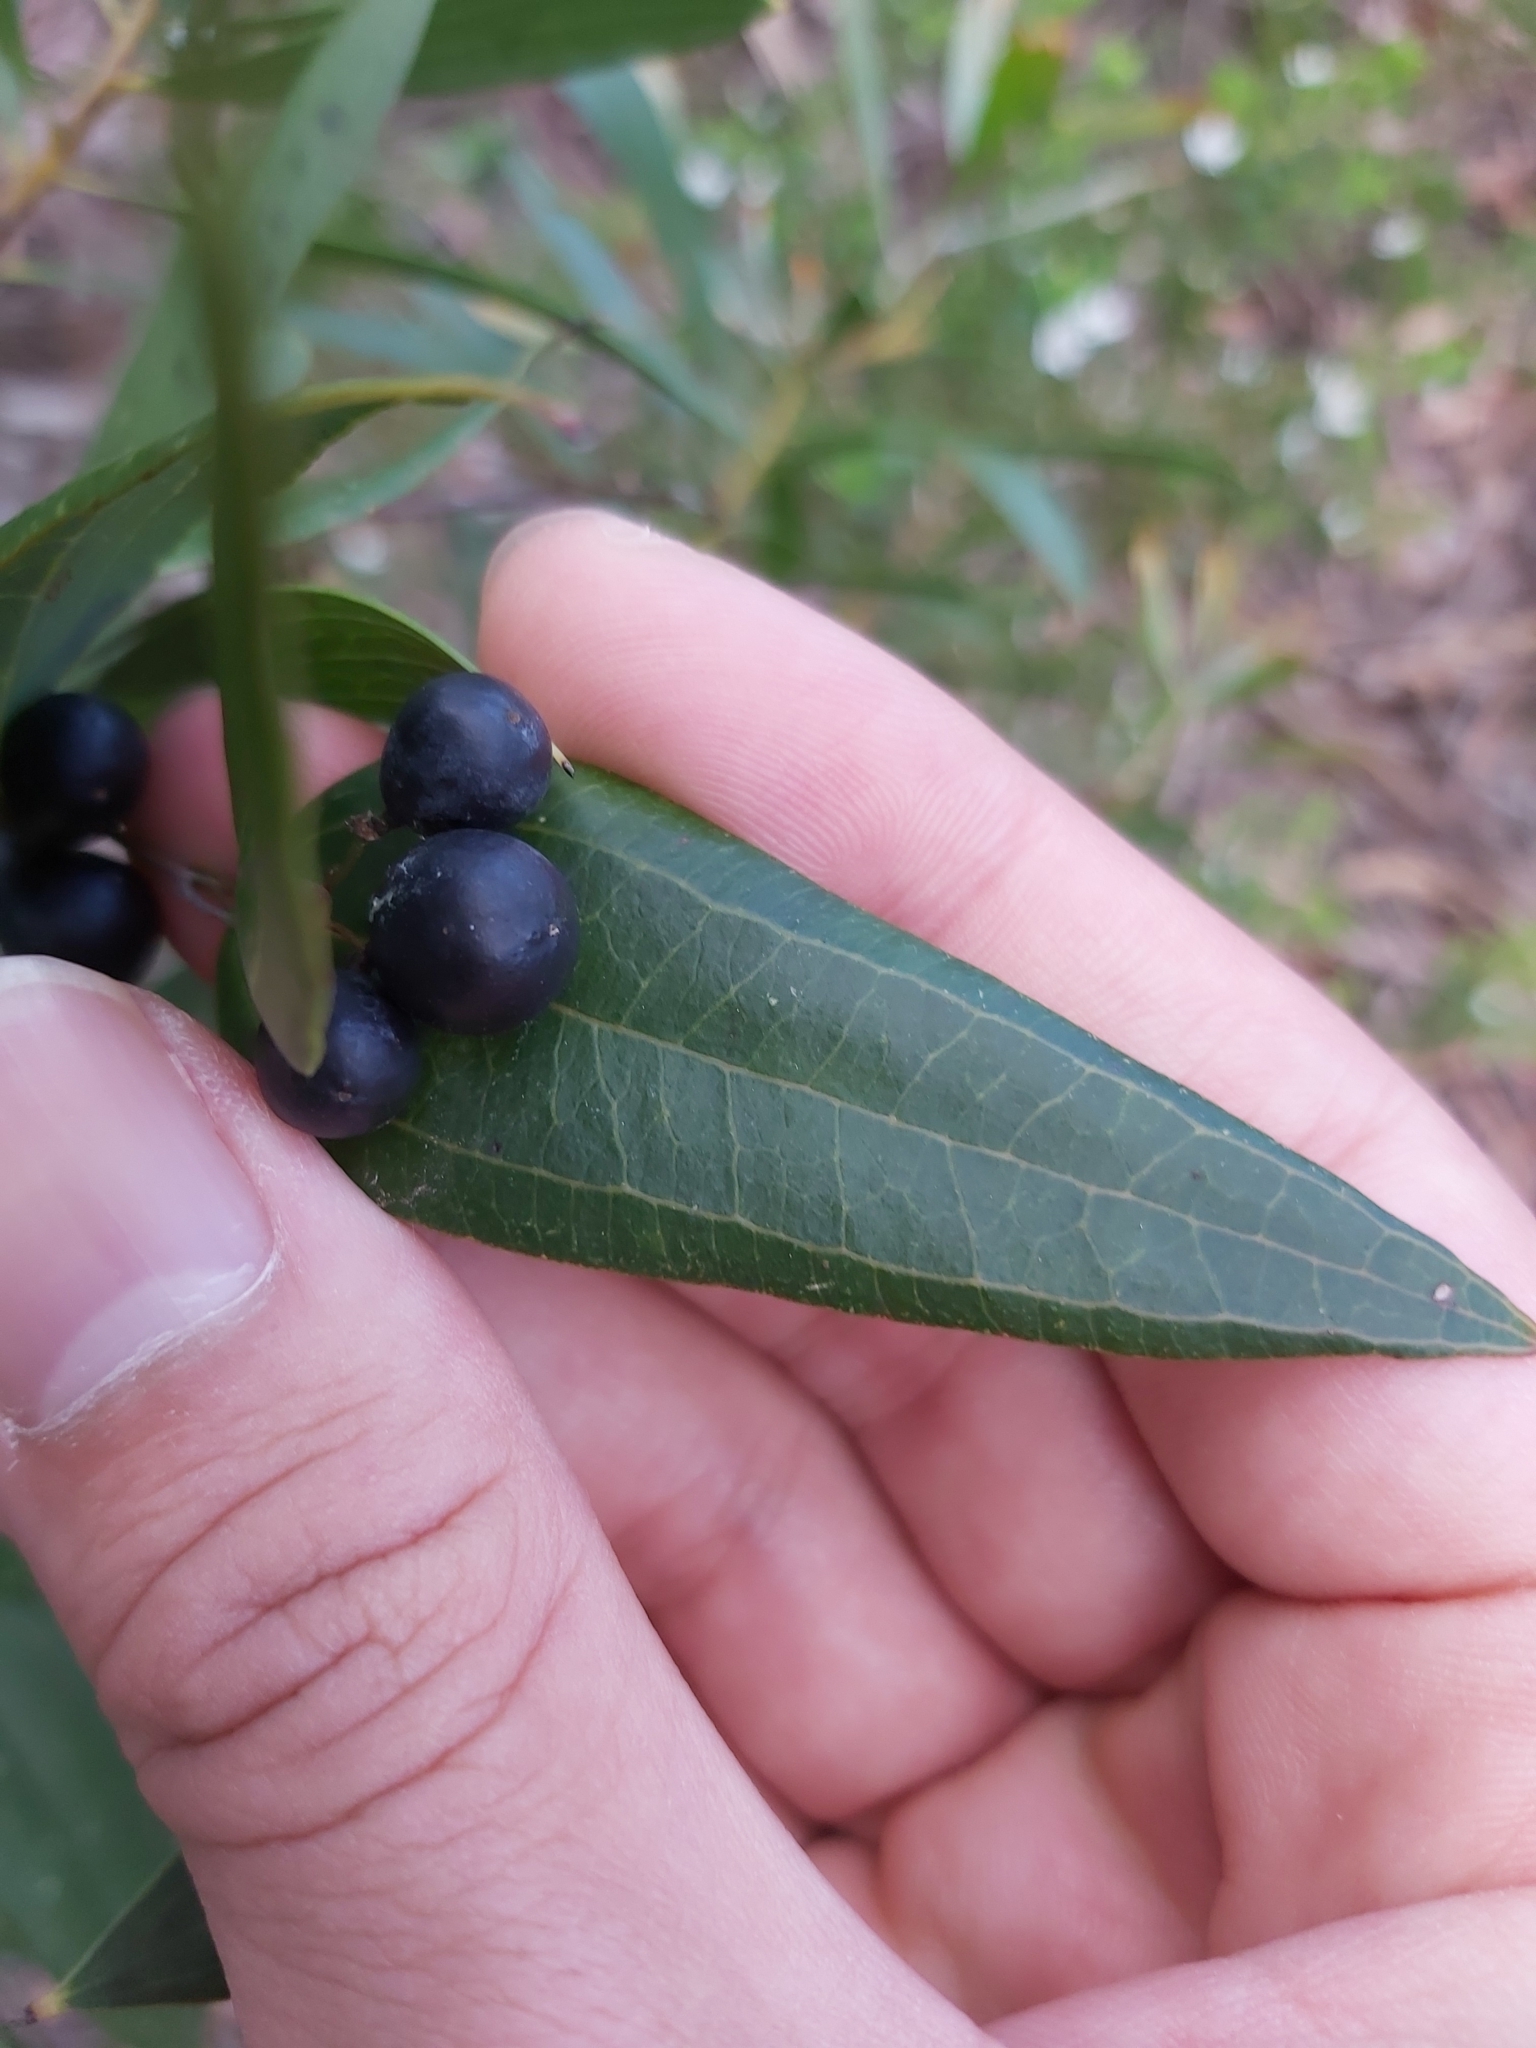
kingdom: Plantae
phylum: Tracheophyta
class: Liliopsida
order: Liliales
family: Smilacaceae
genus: Smilax
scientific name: Smilax glyciphylla
